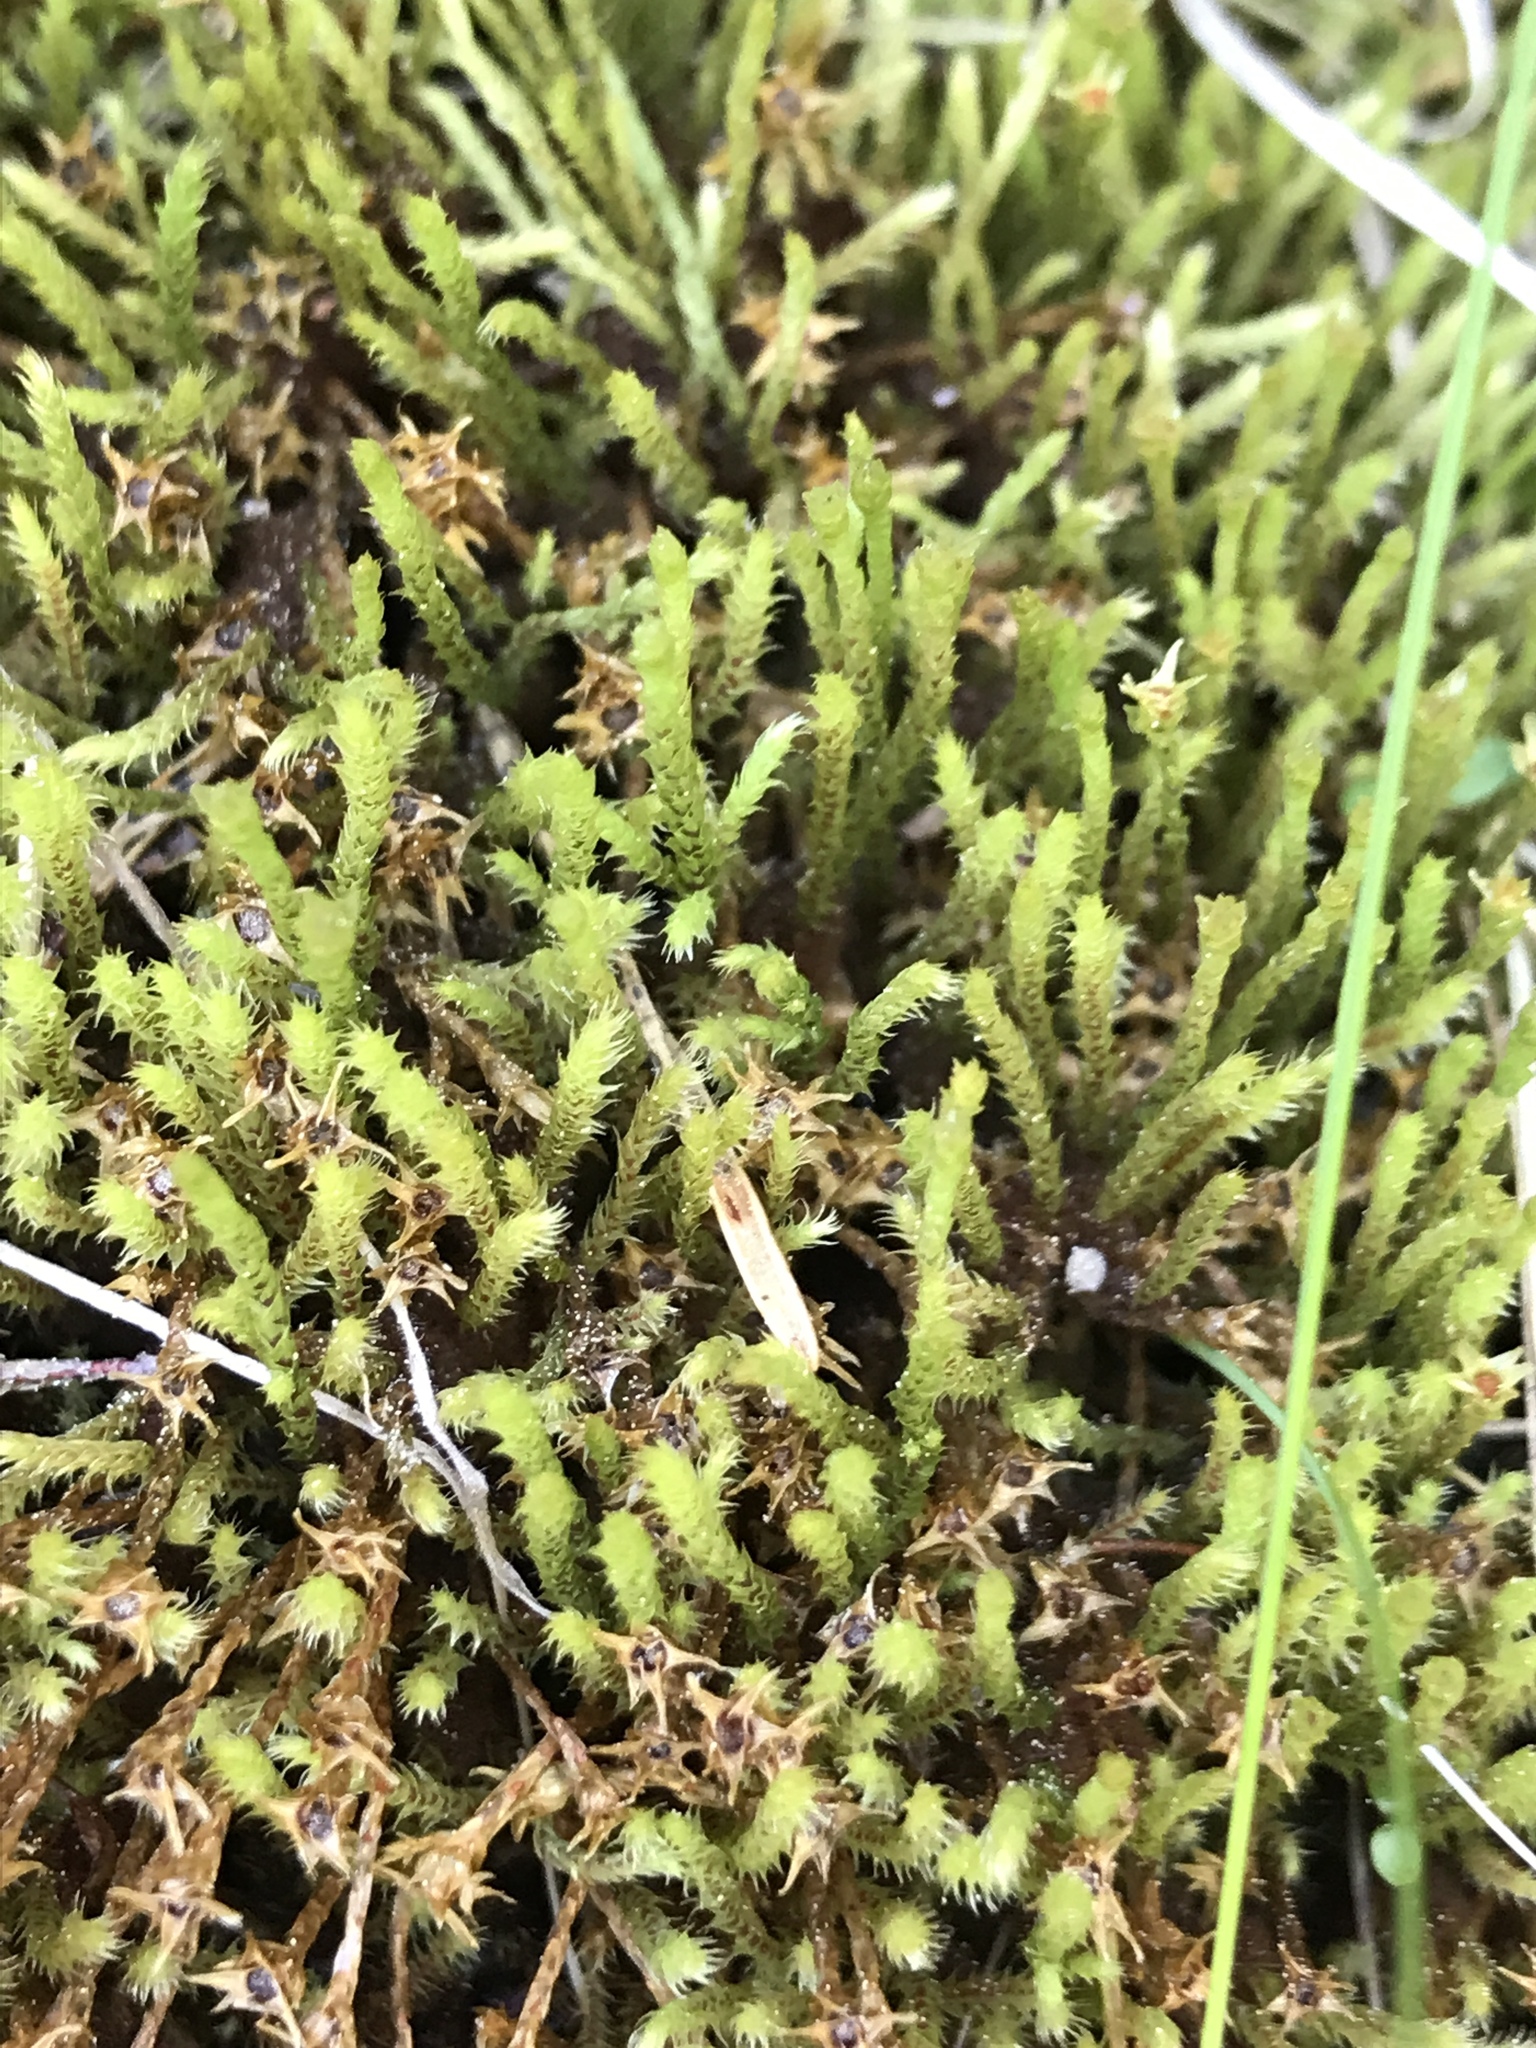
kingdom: Plantae
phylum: Bryophyta
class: Bryopsida
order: Bartramiales
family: Bartramiaceae
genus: Philonotis
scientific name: Philonotis fontana
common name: Fountain apple-moss
